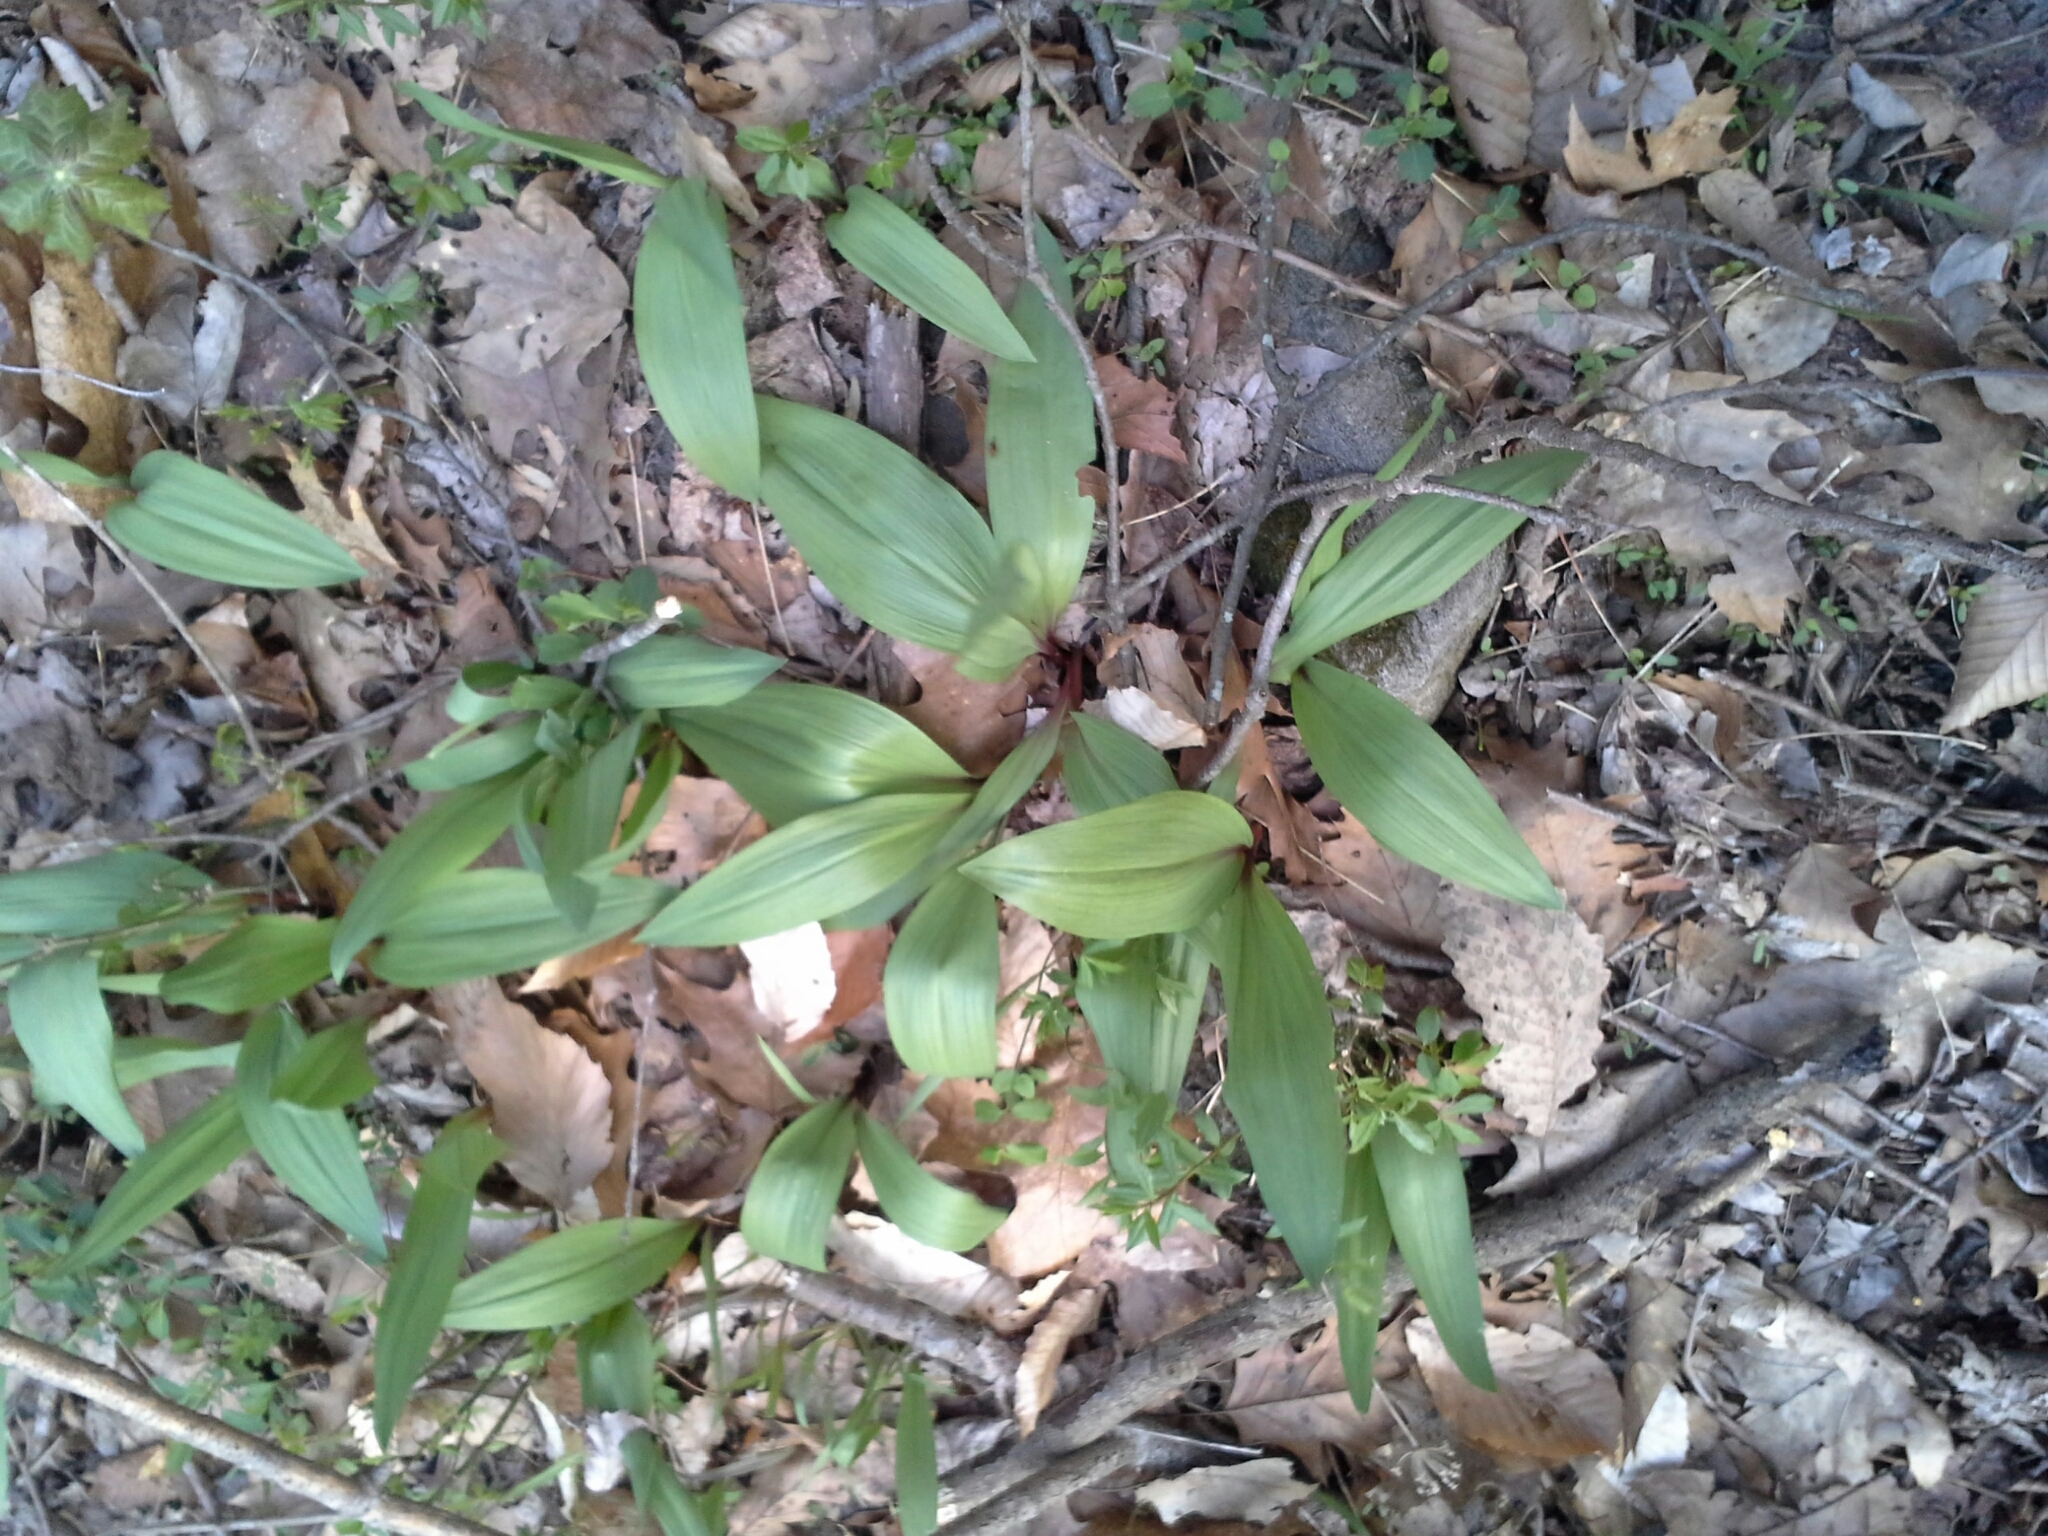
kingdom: Plantae
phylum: Tracheophyta
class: Liliopsida
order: Asparagales
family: Amaryllidaceae
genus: Allium
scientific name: Allium tricoccum
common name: Ramp
